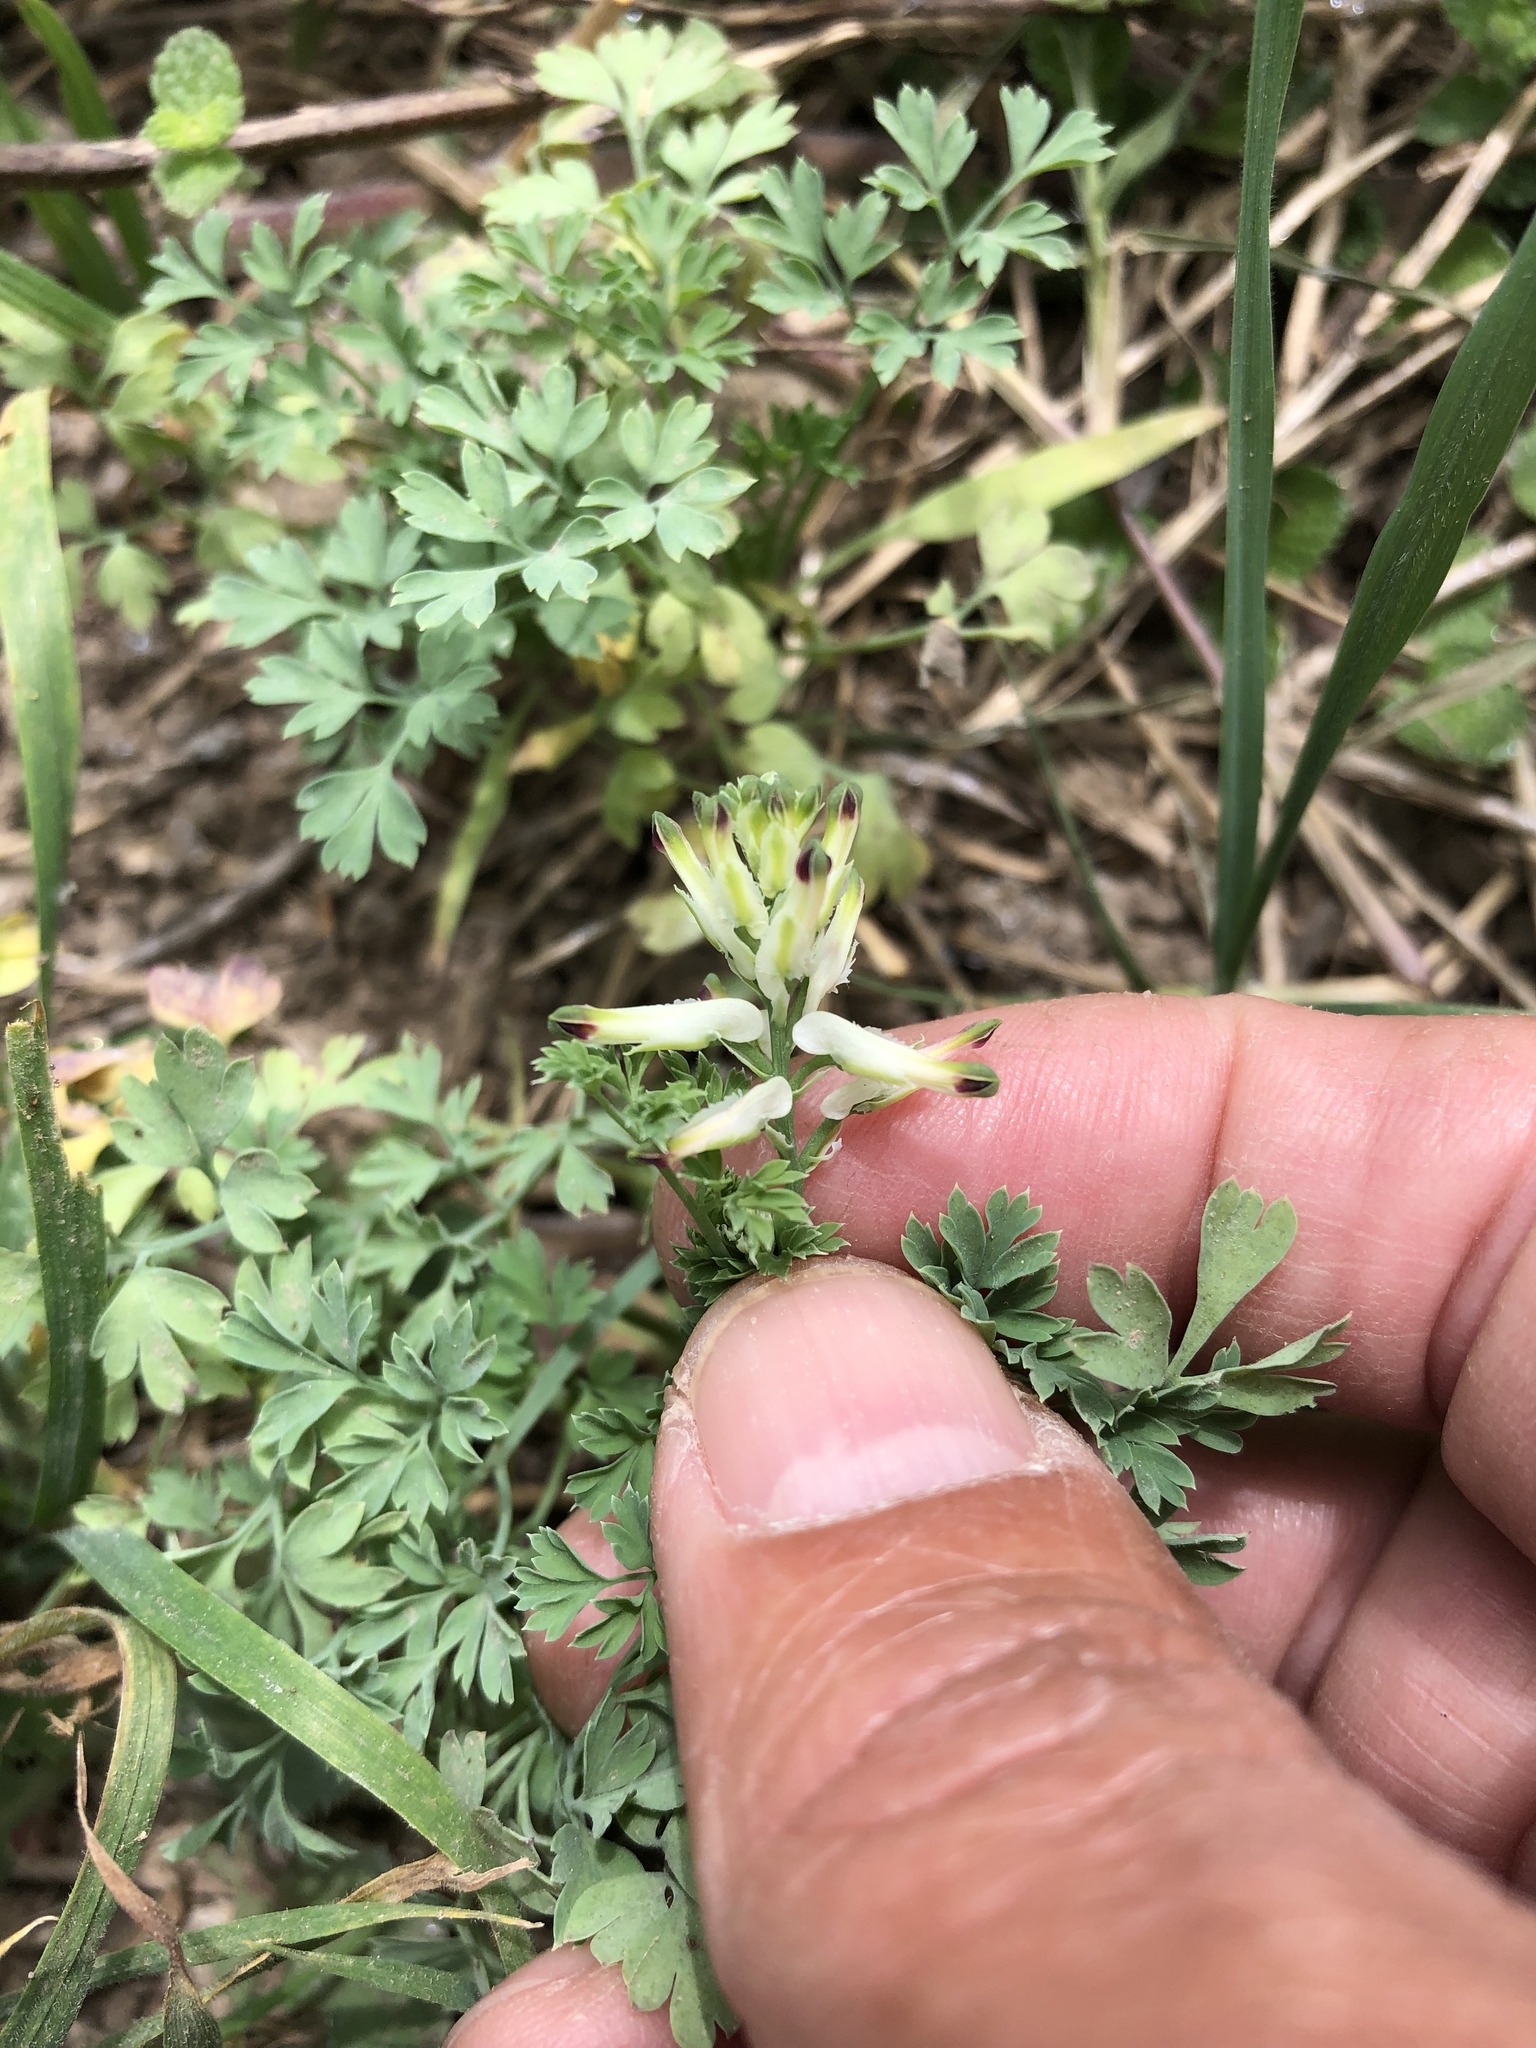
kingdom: Plantae
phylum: Tracheophyta
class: Magnoliopsida
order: Ranunculales
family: Papaveraceae
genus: Fumaria
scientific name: Fumaria capreolata
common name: White ramping-fumitory
